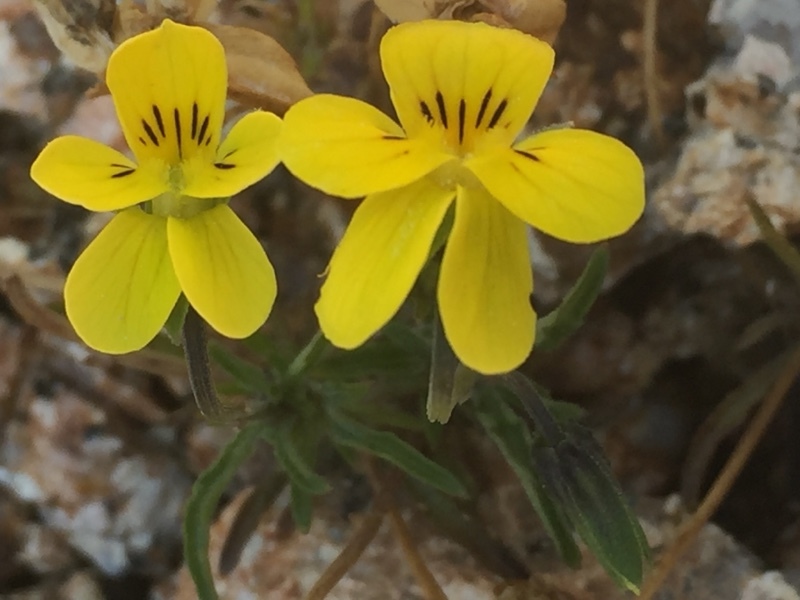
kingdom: Plantae
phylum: Tracheophyta
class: Magnoliopsida
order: Malpighiales
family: Violaceae
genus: Viola
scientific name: Viola langeana
